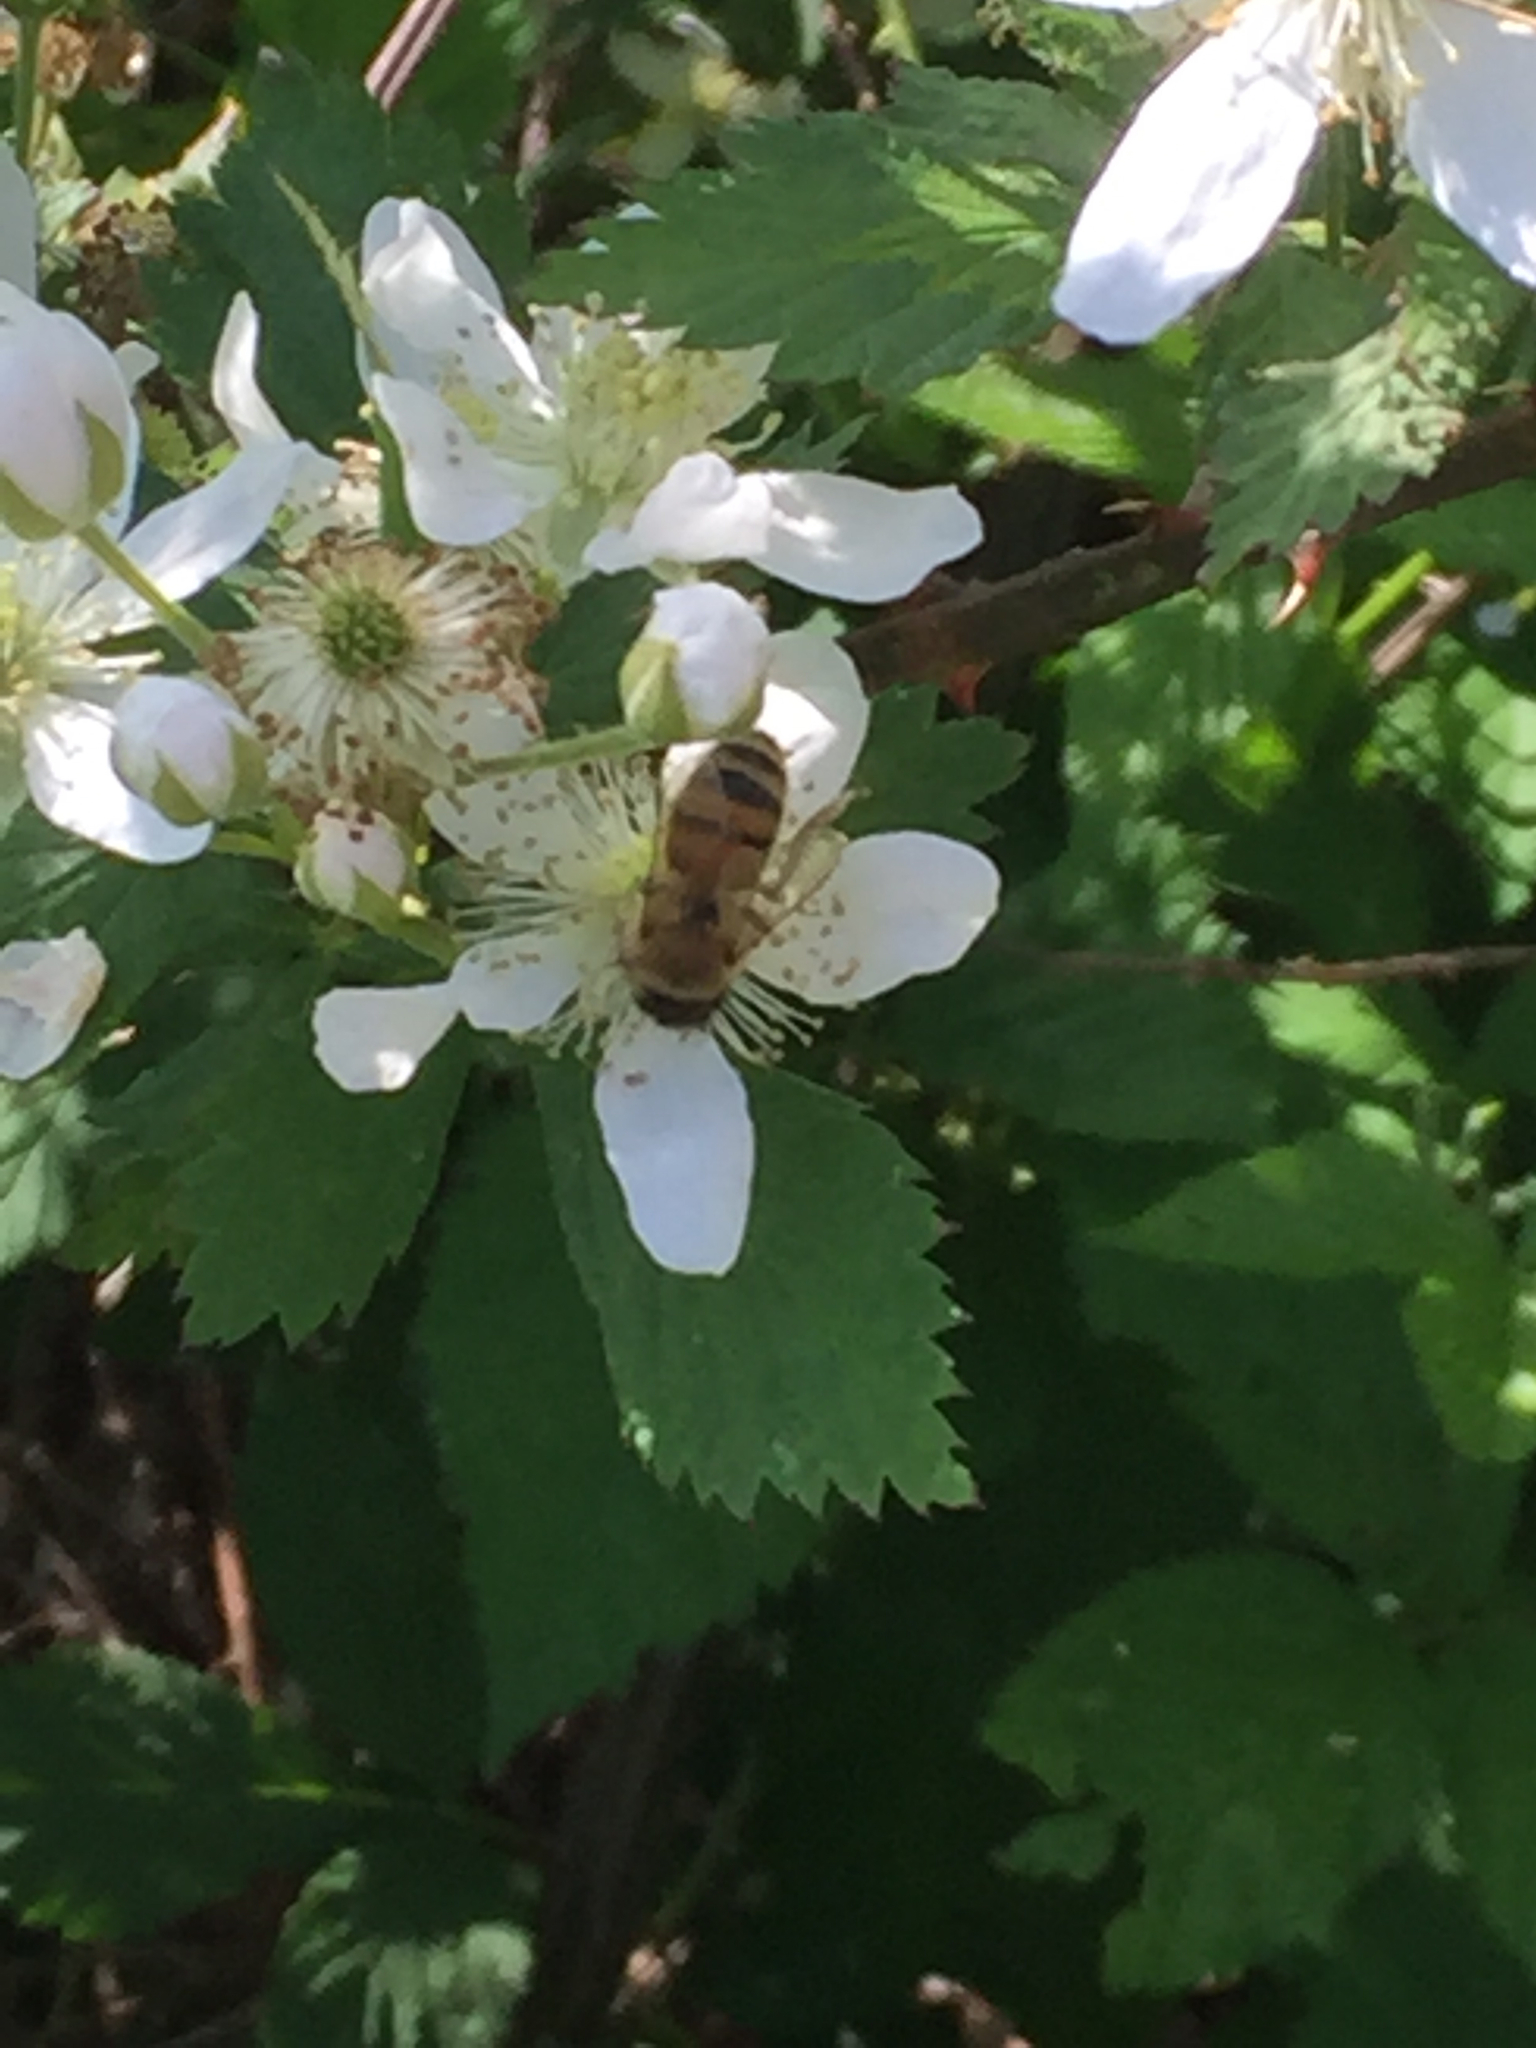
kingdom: Animalia
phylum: Arthropoda
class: Insecta
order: Hymenoptera
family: Apidae
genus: Apis
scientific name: Apis mellifera
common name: Honey bee
